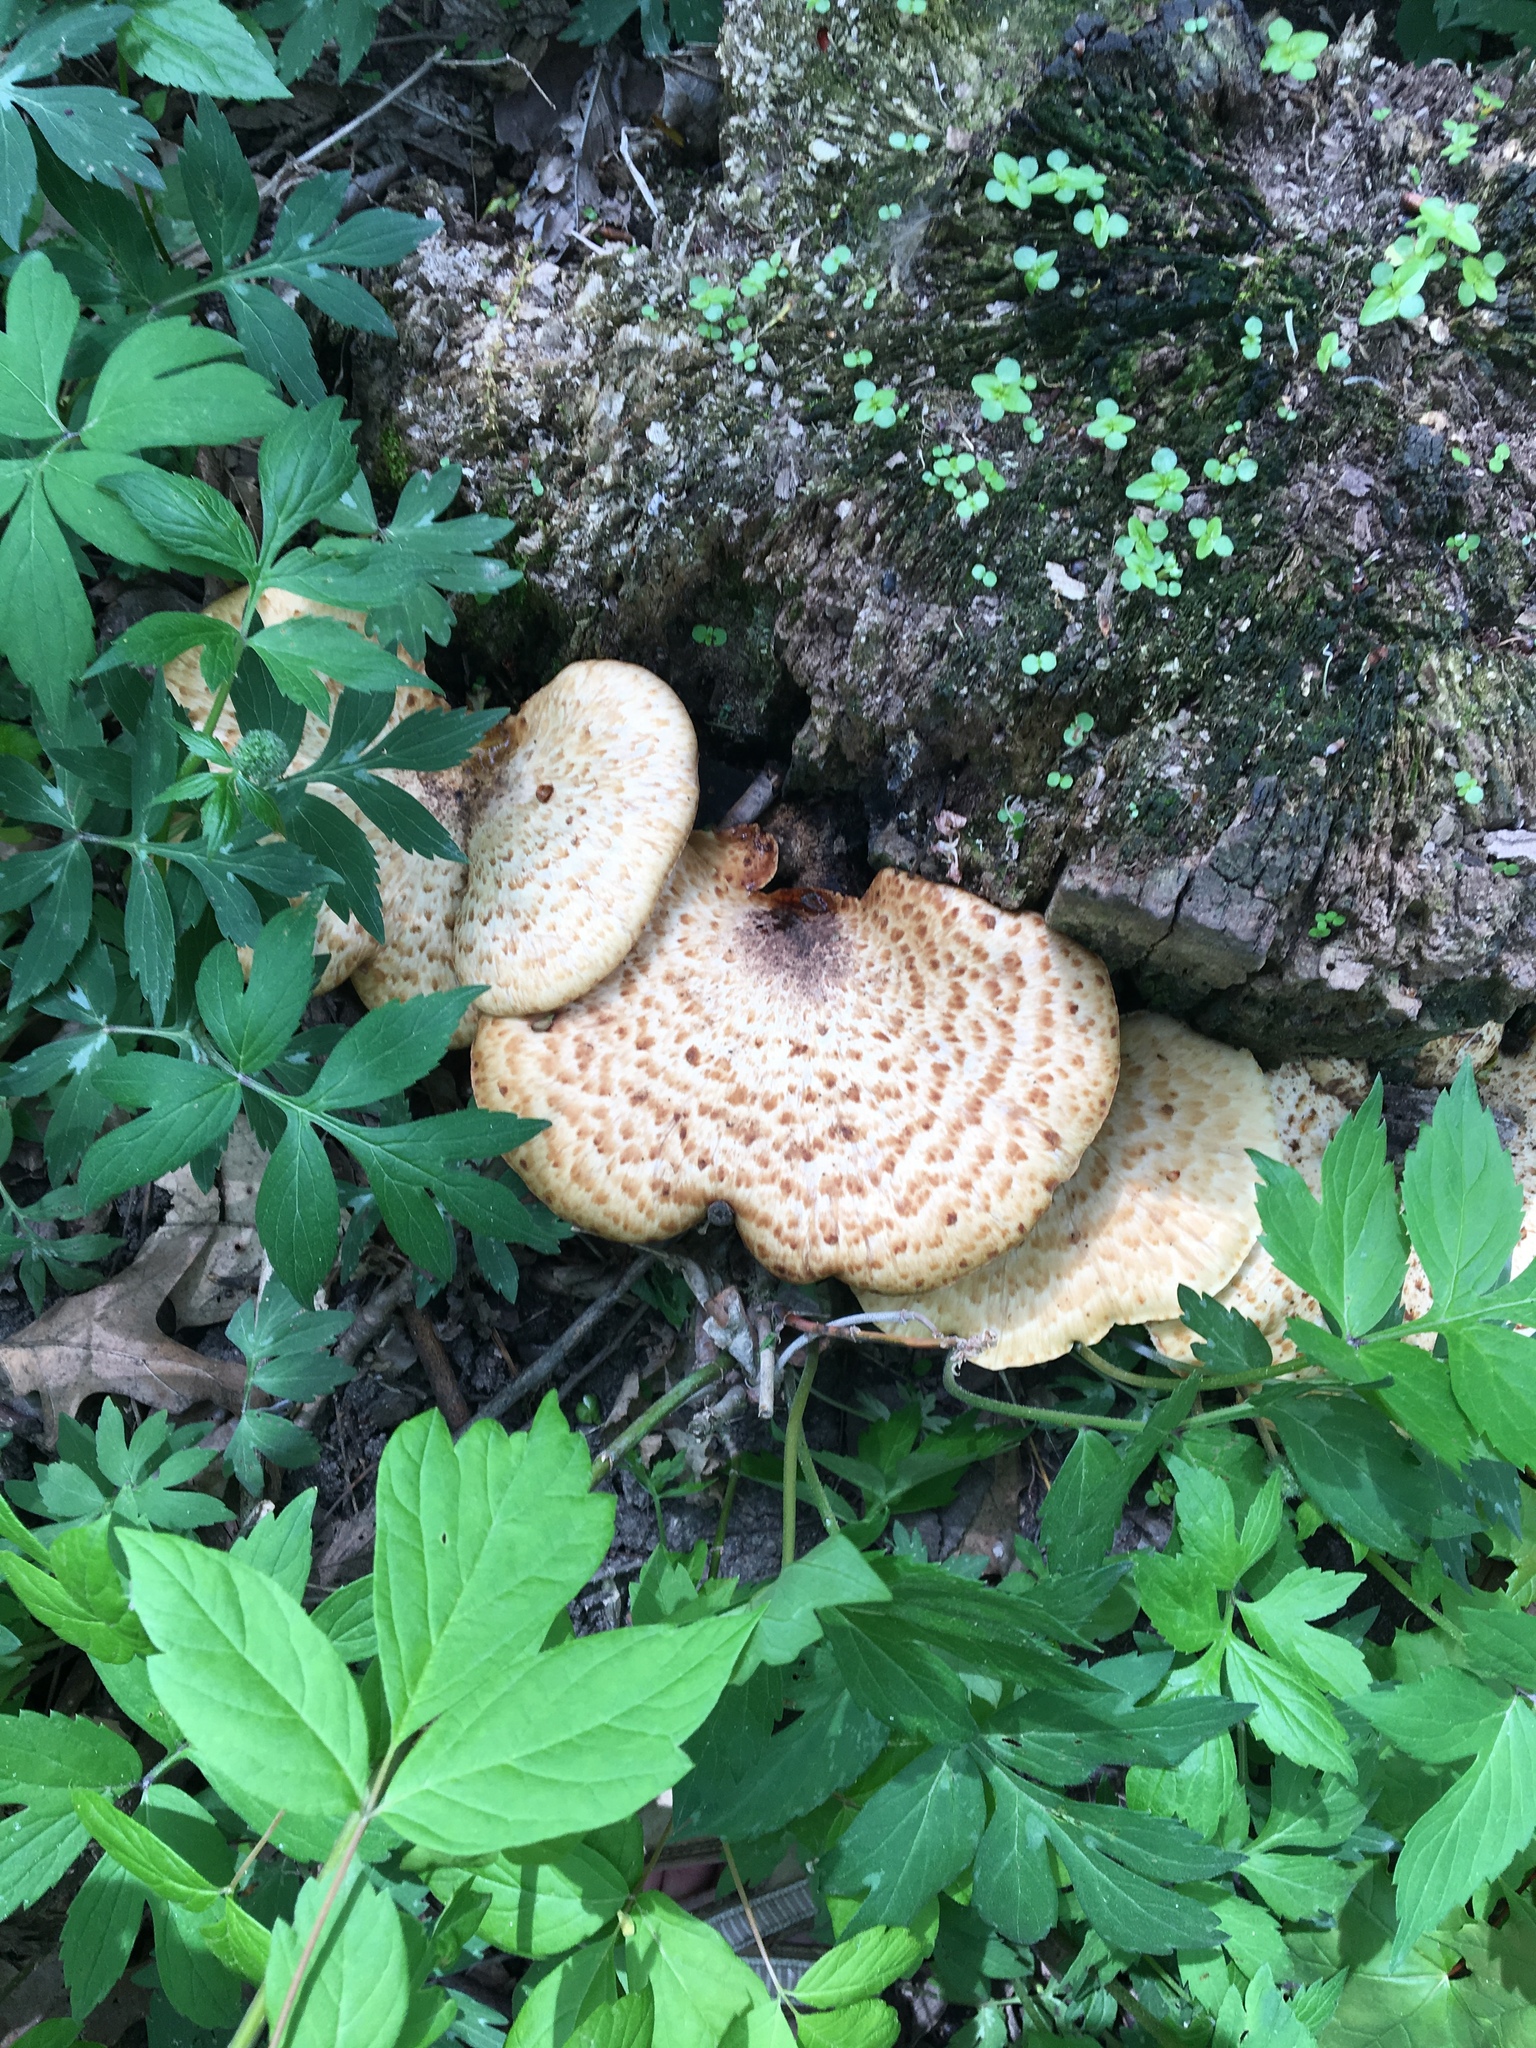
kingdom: Fungi
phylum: Basidiomycota
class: Agaricomycetes
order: Polyporales
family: Polyporaceae
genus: Cerioporus
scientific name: Cerioporus squamosus
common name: Dryad's saddle
